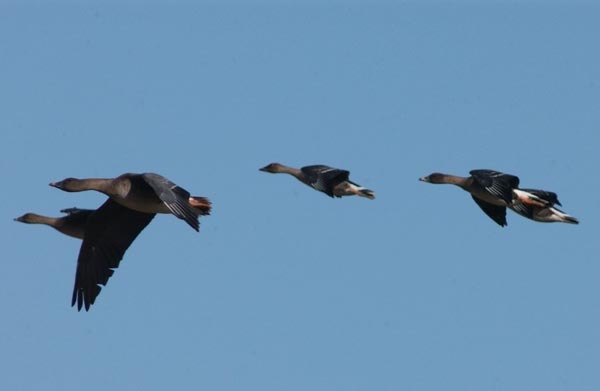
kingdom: Animalia
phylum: Chordata
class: Aves
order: Anseriformes
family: Anatidae
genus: Anser
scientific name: Anser fabalis
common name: Bean goose
